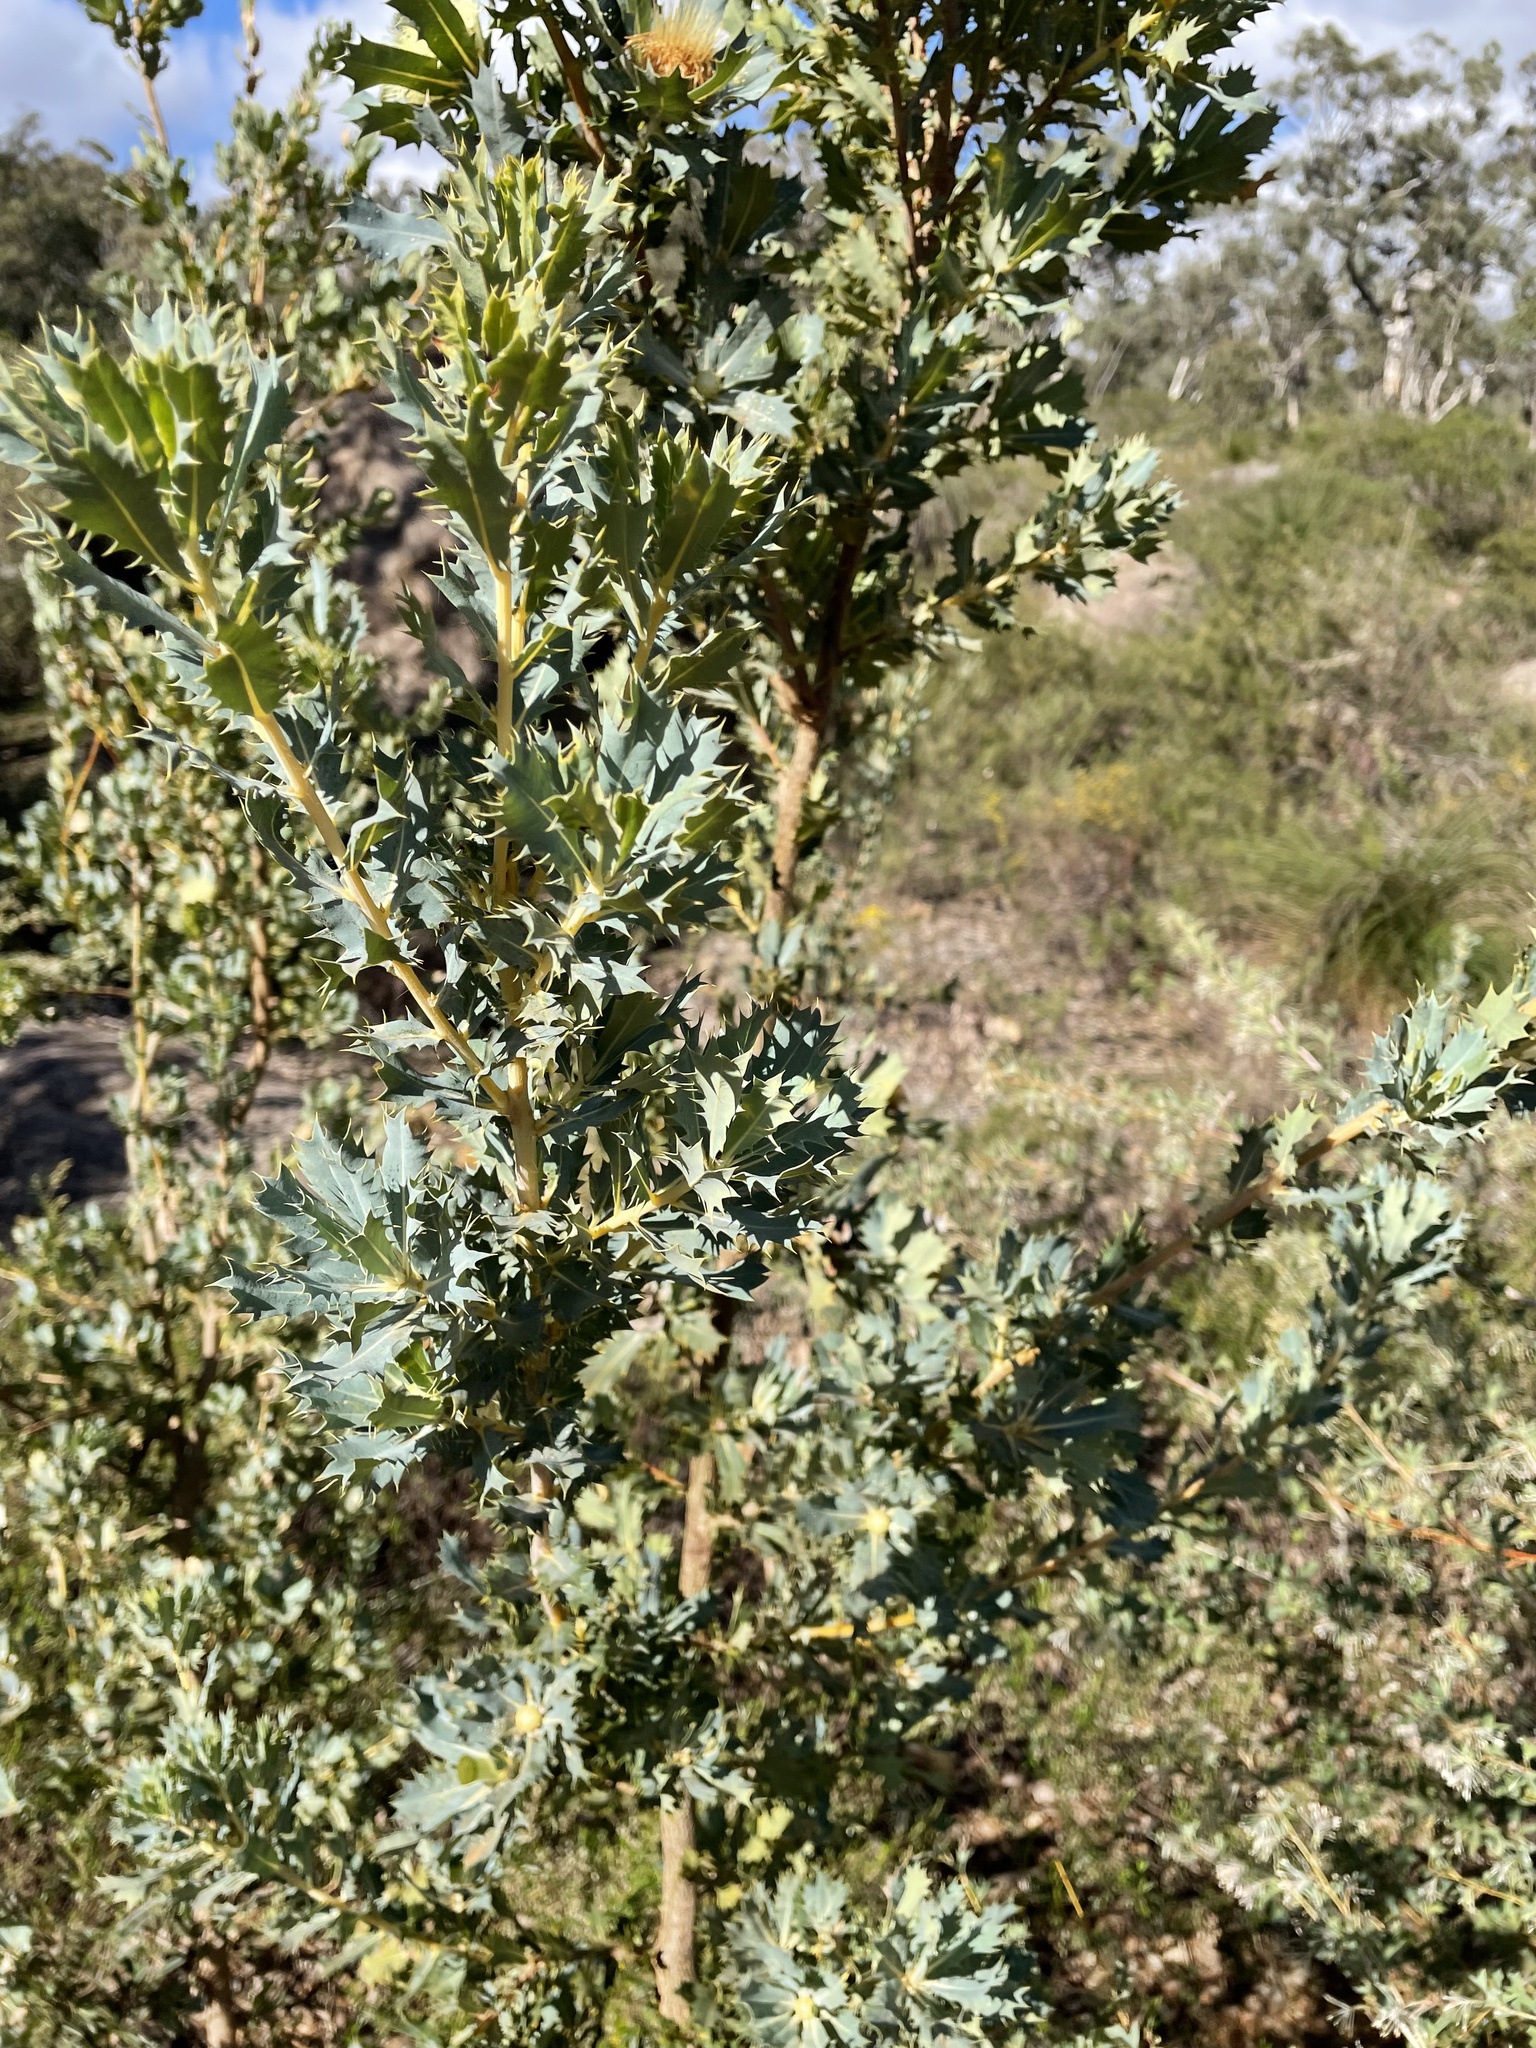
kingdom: Plantae
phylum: Tracheophyta
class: Magnoliopsida
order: Proteales
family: Proteaceae
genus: Banksia
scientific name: Banksia sessilis
